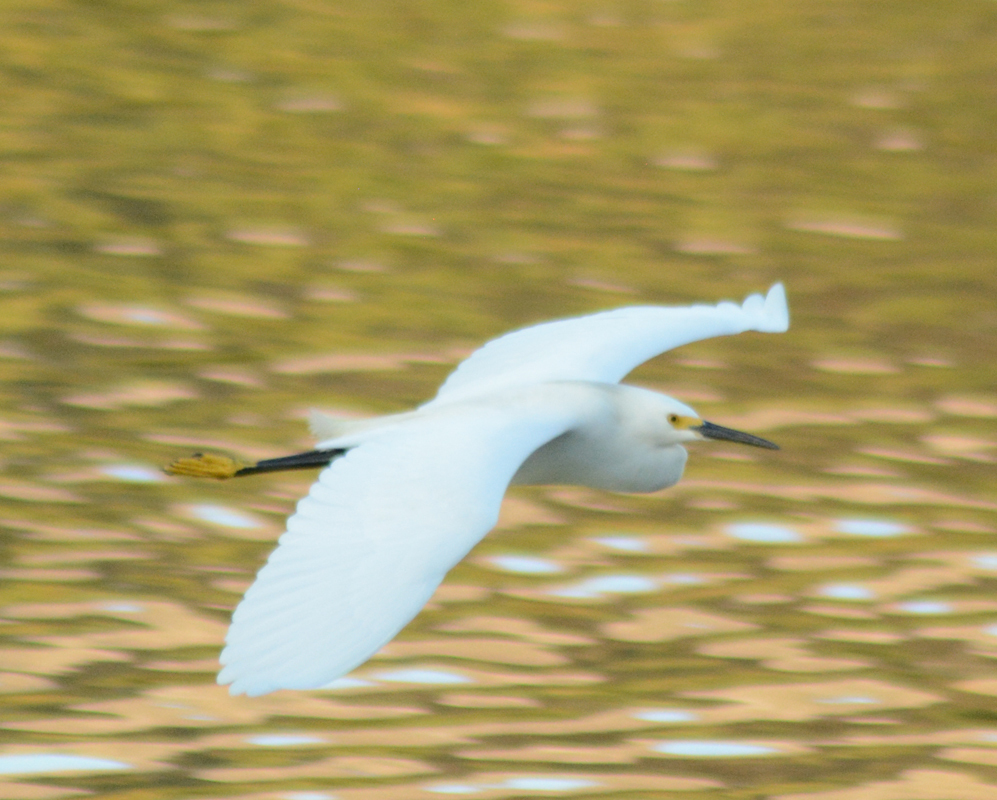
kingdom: Animalia
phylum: Chordata
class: Aves
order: Pelecaniformes
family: Ardeidae
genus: Egretta
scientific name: Egretta thula
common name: Snowy egret
